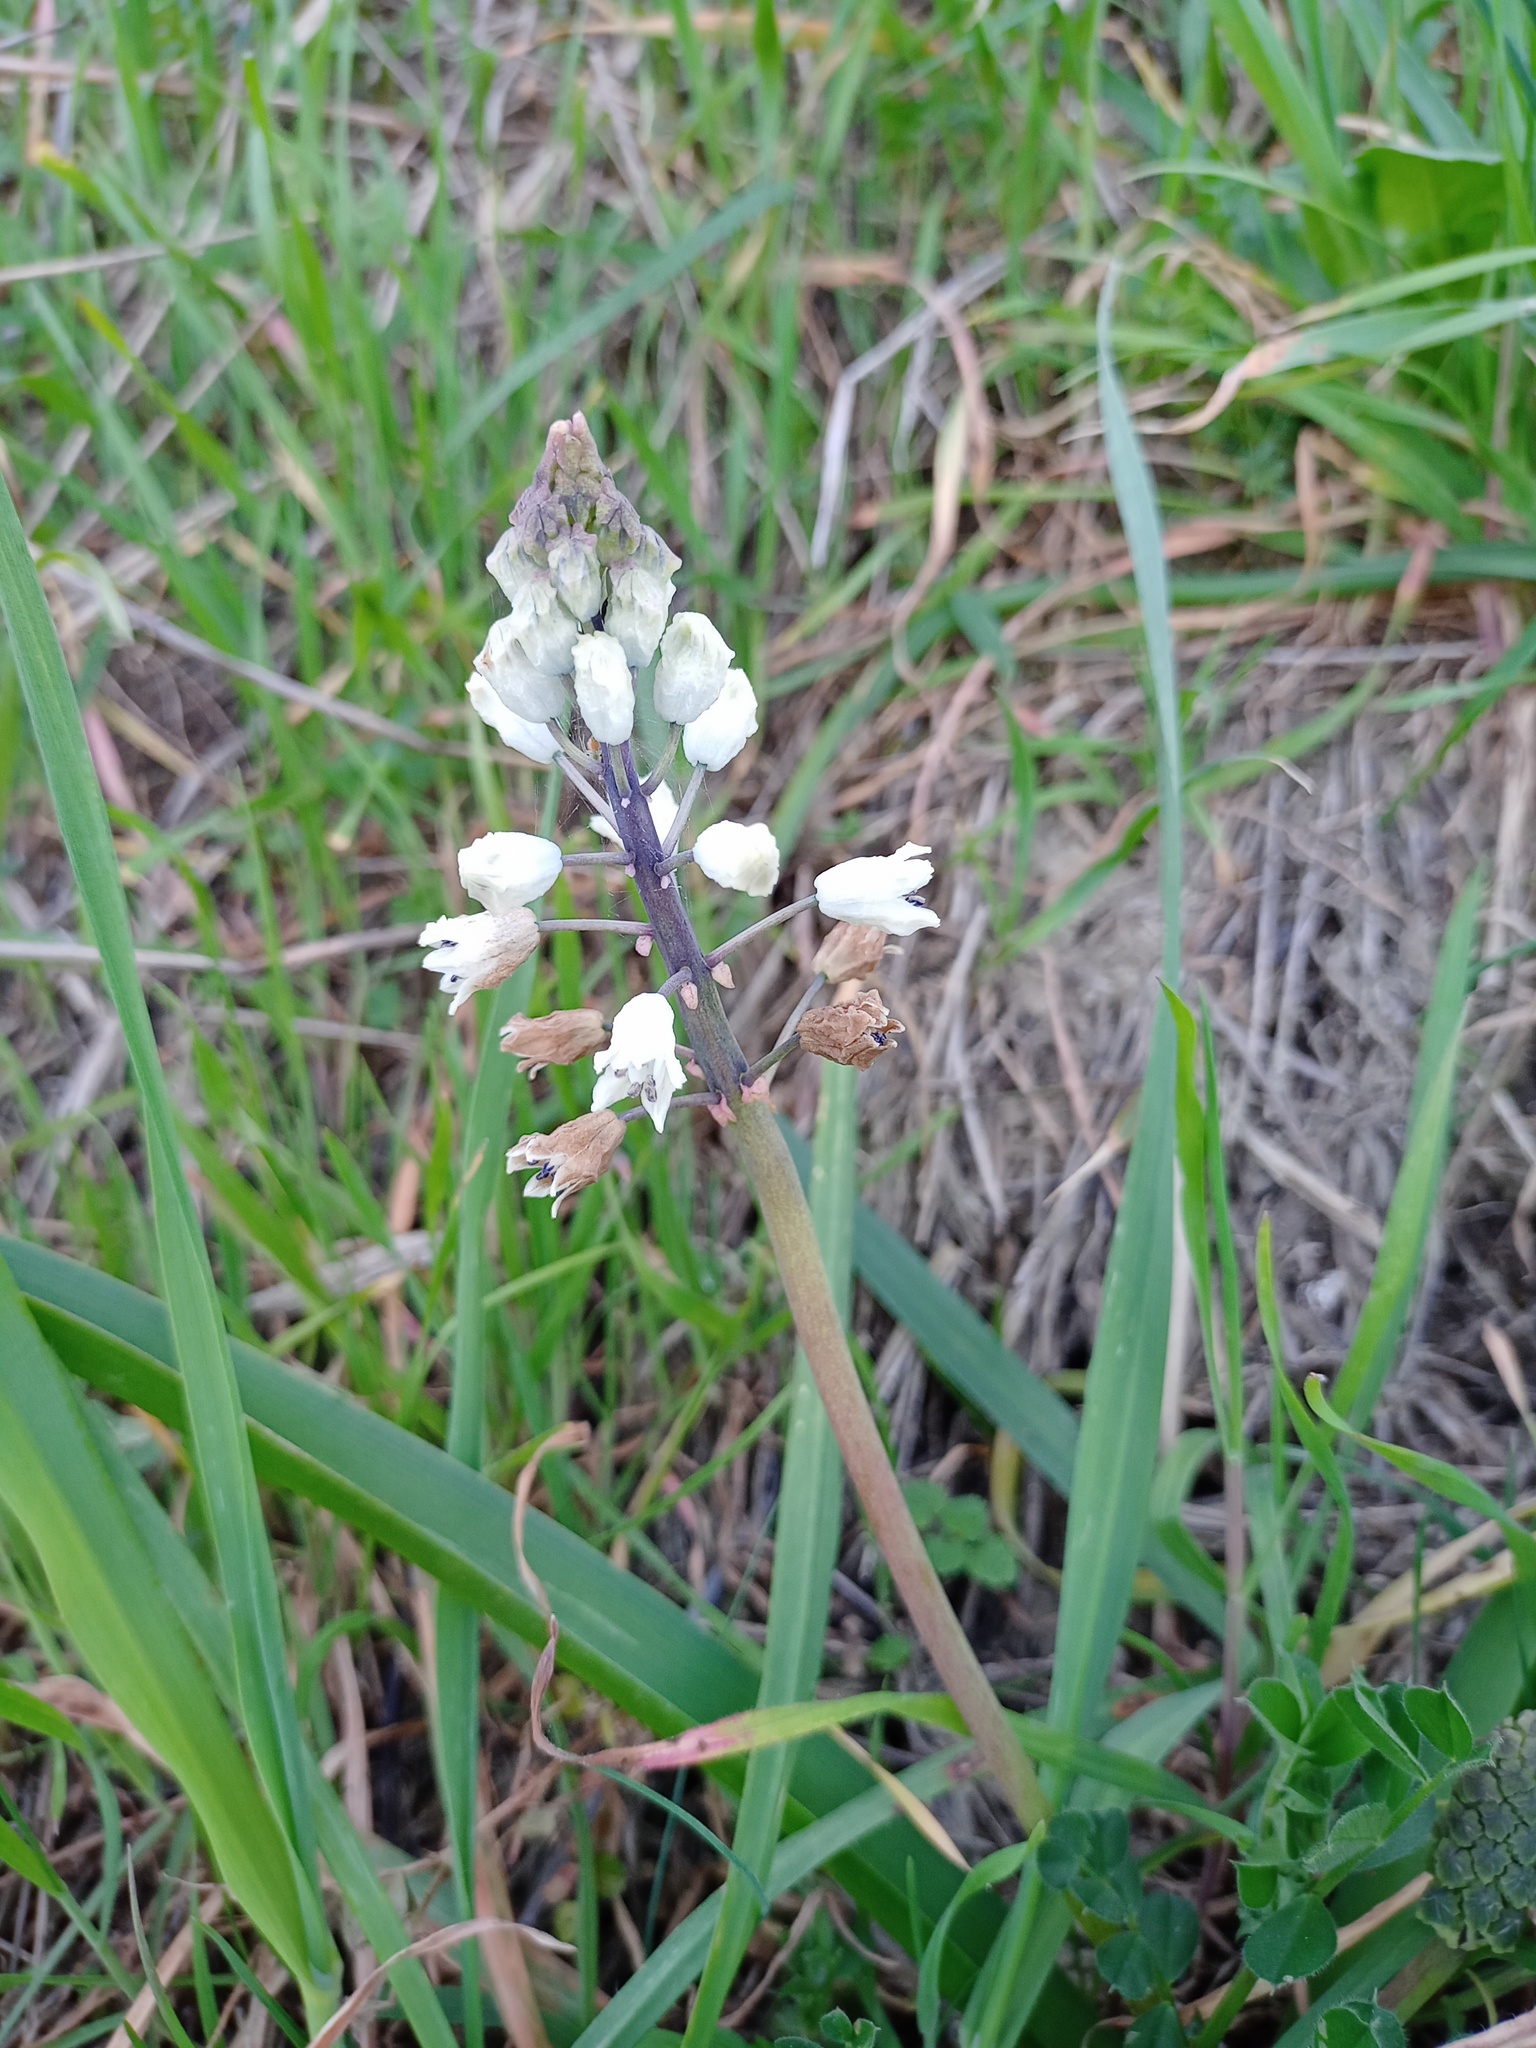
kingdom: Plantae
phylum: Tracheophyta
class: Liliopsida
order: Asparagales
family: Asparagaceae
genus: Bellevalia
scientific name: Bellevalia romana
